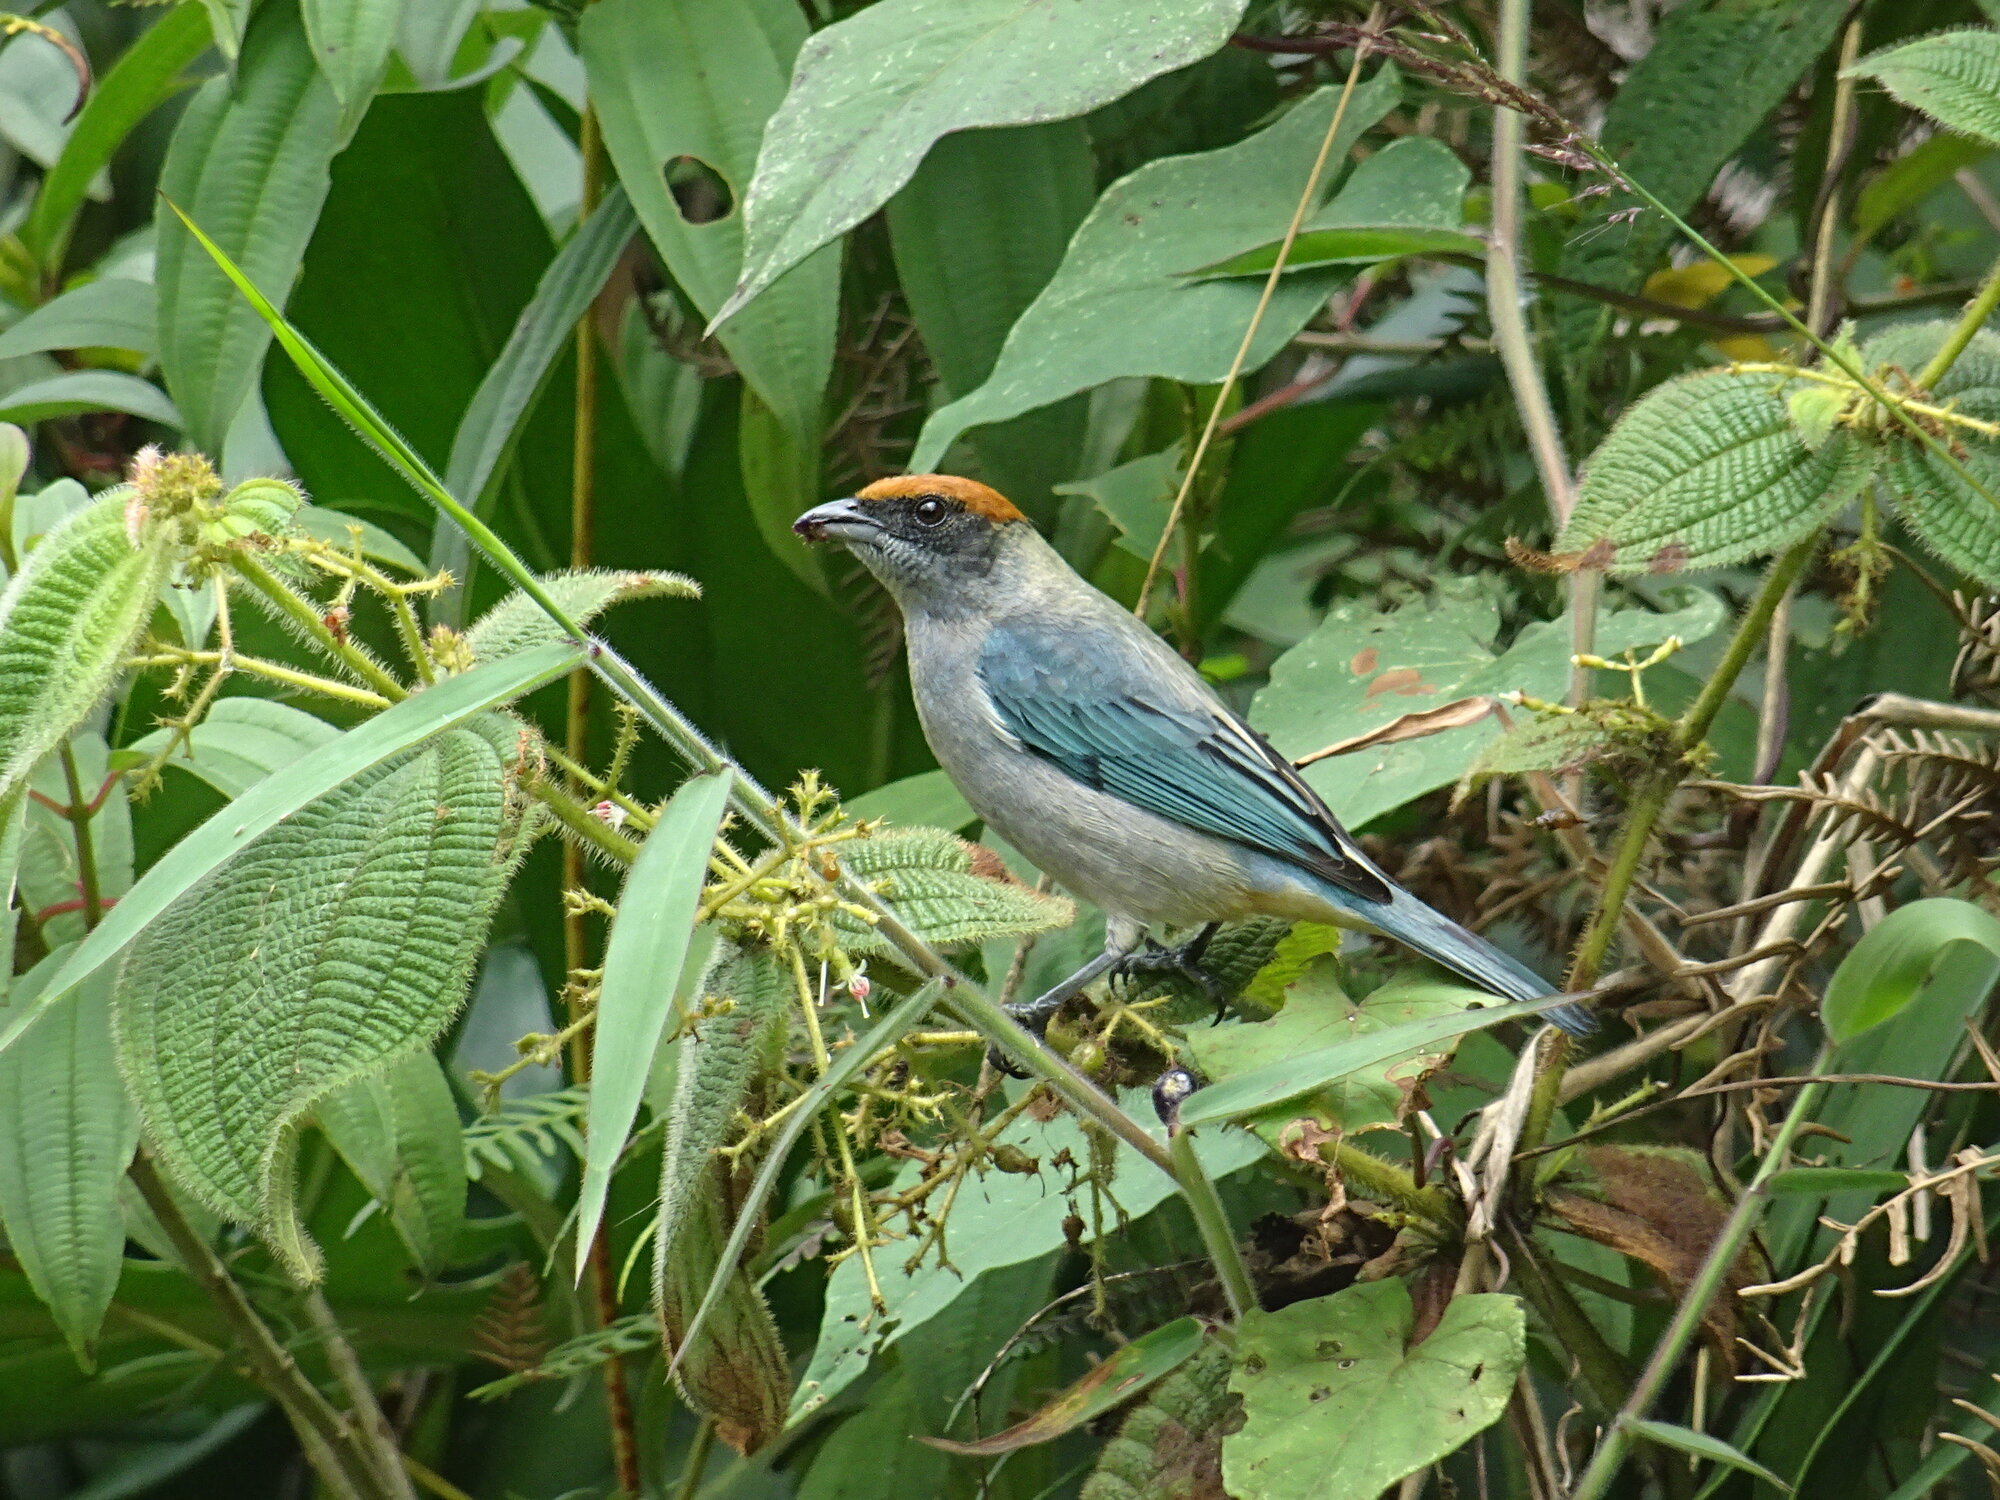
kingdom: Animalia
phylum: Chordata
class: Aves
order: Passeriformes
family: Thraupidae
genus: Stilpnia
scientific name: Stilpnia vitriolina
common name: Scrub tanager
